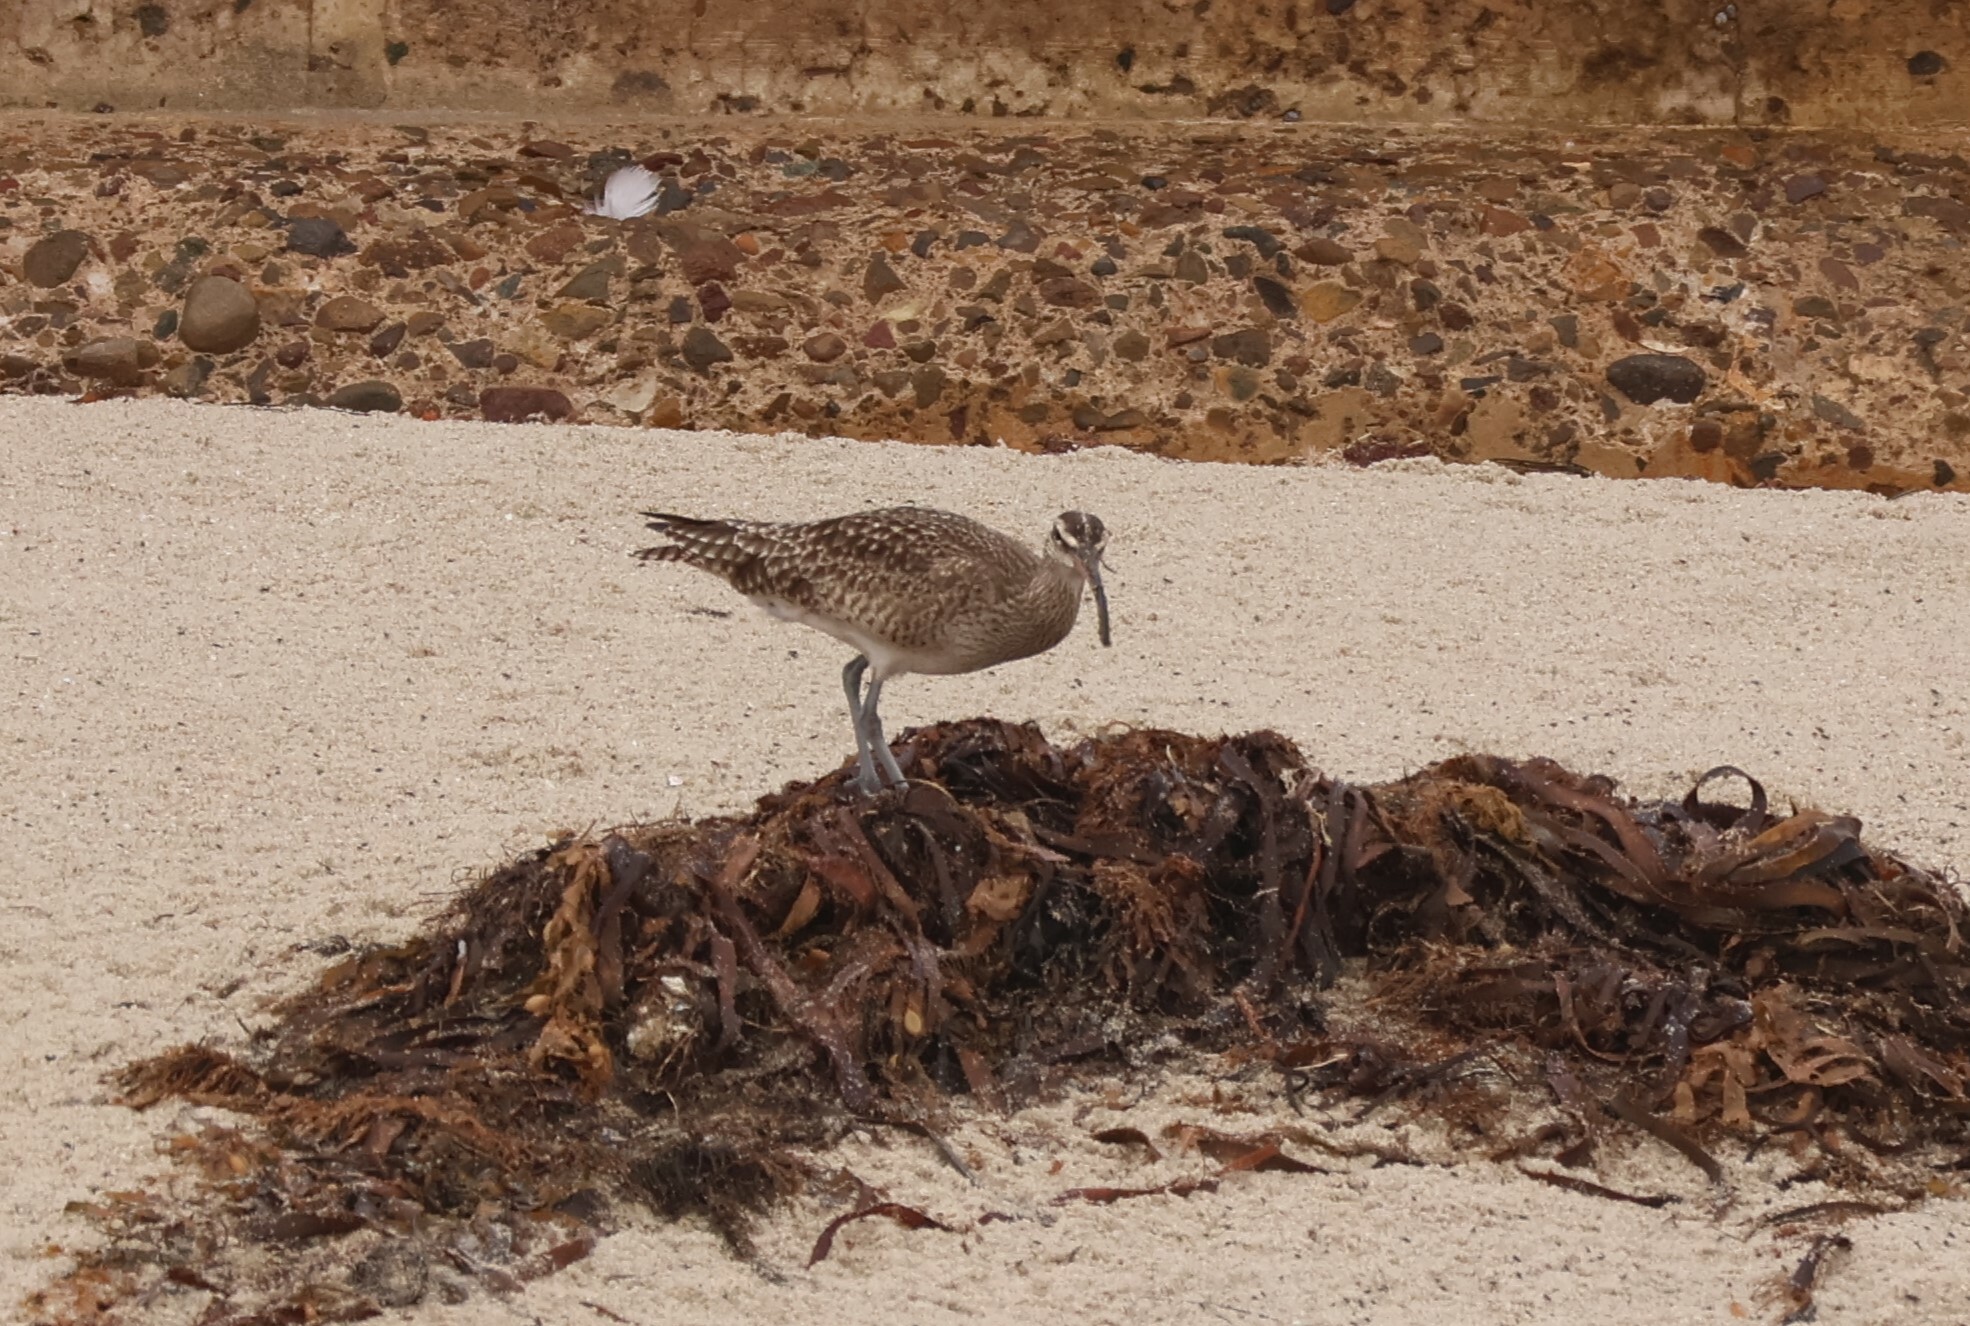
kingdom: Animalia
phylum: Chordata
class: Aves
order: Charadriiformes
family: Scolopacidae
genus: Numenius
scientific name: Numenius phaeopus
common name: Whimbrel
